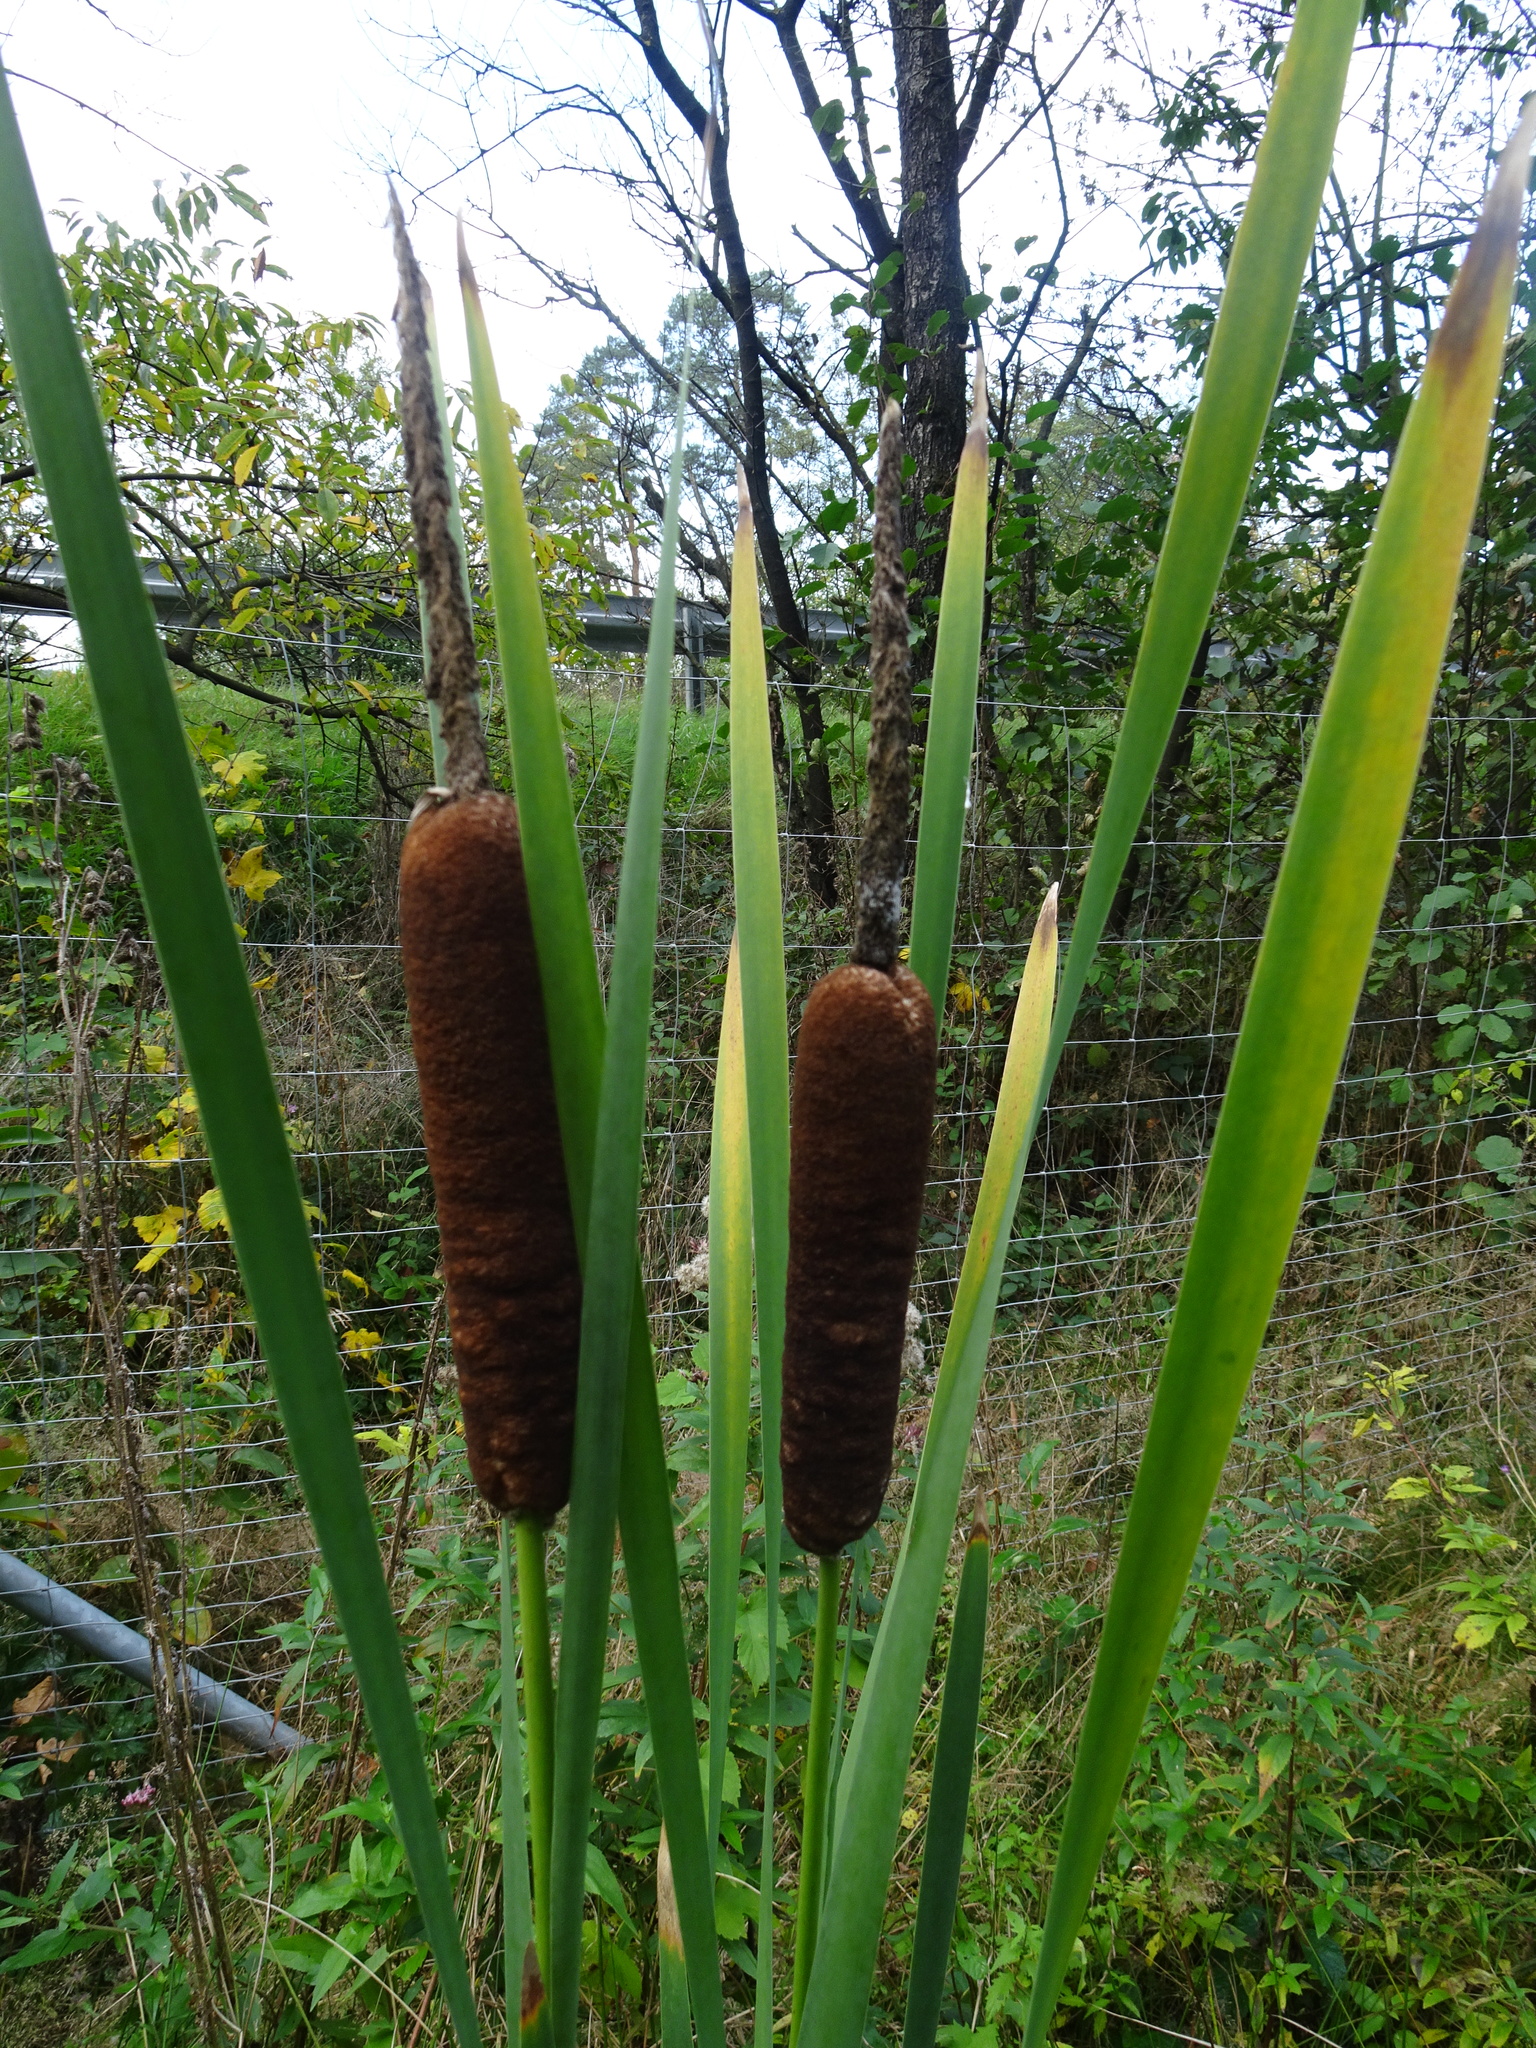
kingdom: Plantae
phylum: Tracheophyta
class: Liliopsida
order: Poales
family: Typhaceae
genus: Typha
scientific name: Typha latifolia
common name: Broadleaf cattail
